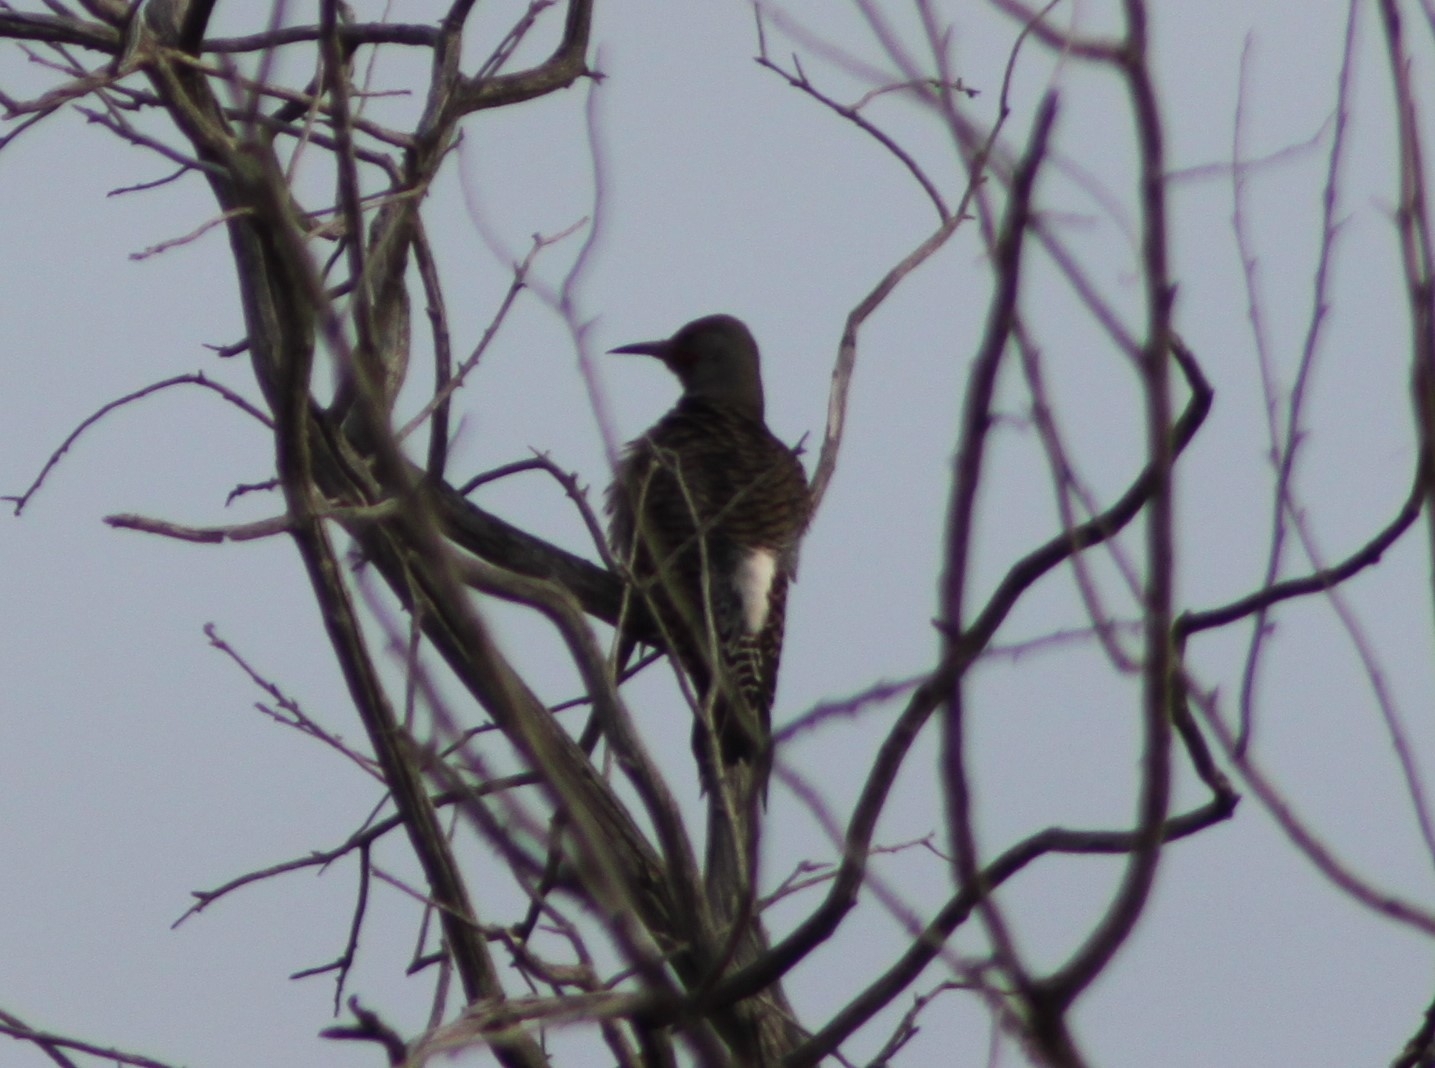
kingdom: Animalia
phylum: Chordata
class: Aves
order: Piciformes
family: Picidae
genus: Colaptes
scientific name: Colaptes auratus
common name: Northern flicker
